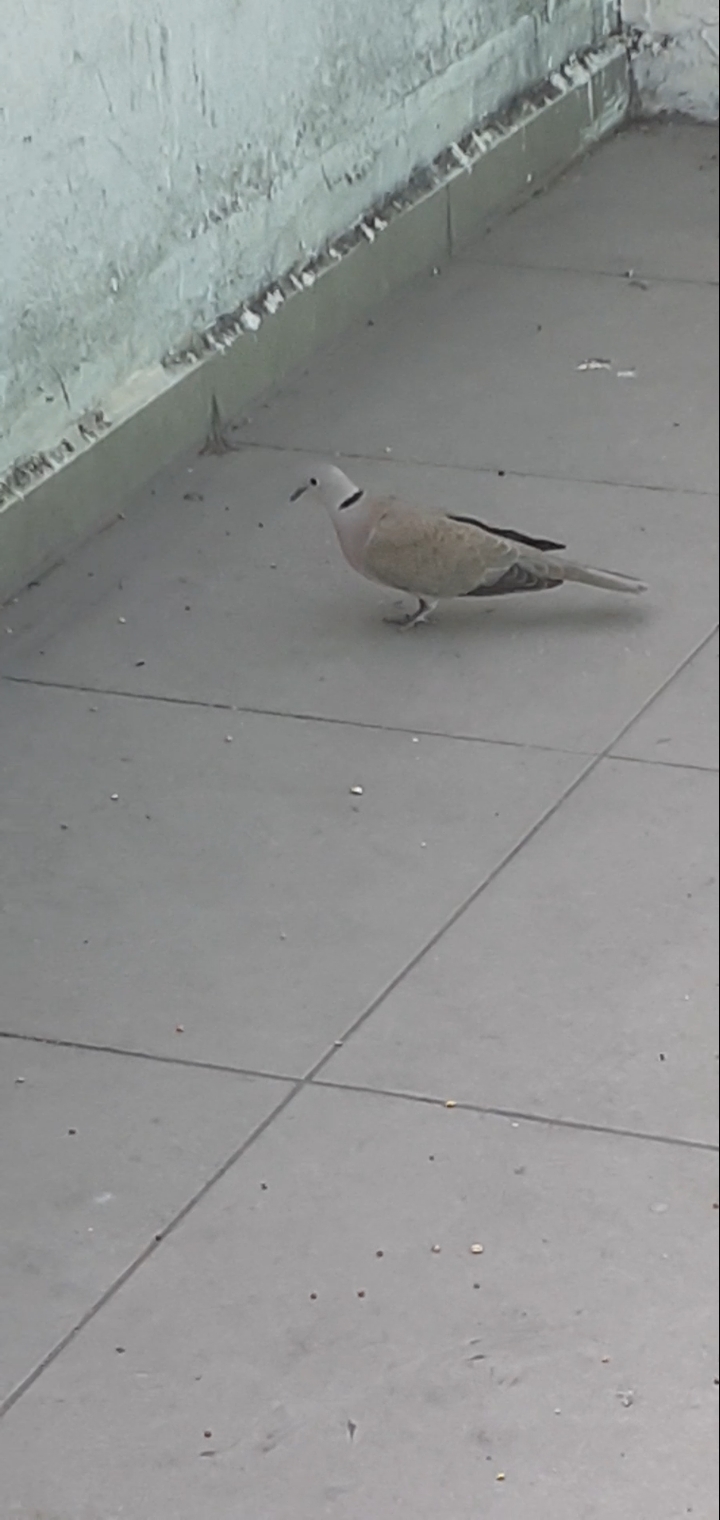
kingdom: Animalia
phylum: Chordata
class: Aves
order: Columbiformes
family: Columbidae
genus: Streptopelia
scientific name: Streptopelia decaocto
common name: Eurasian collared dove
